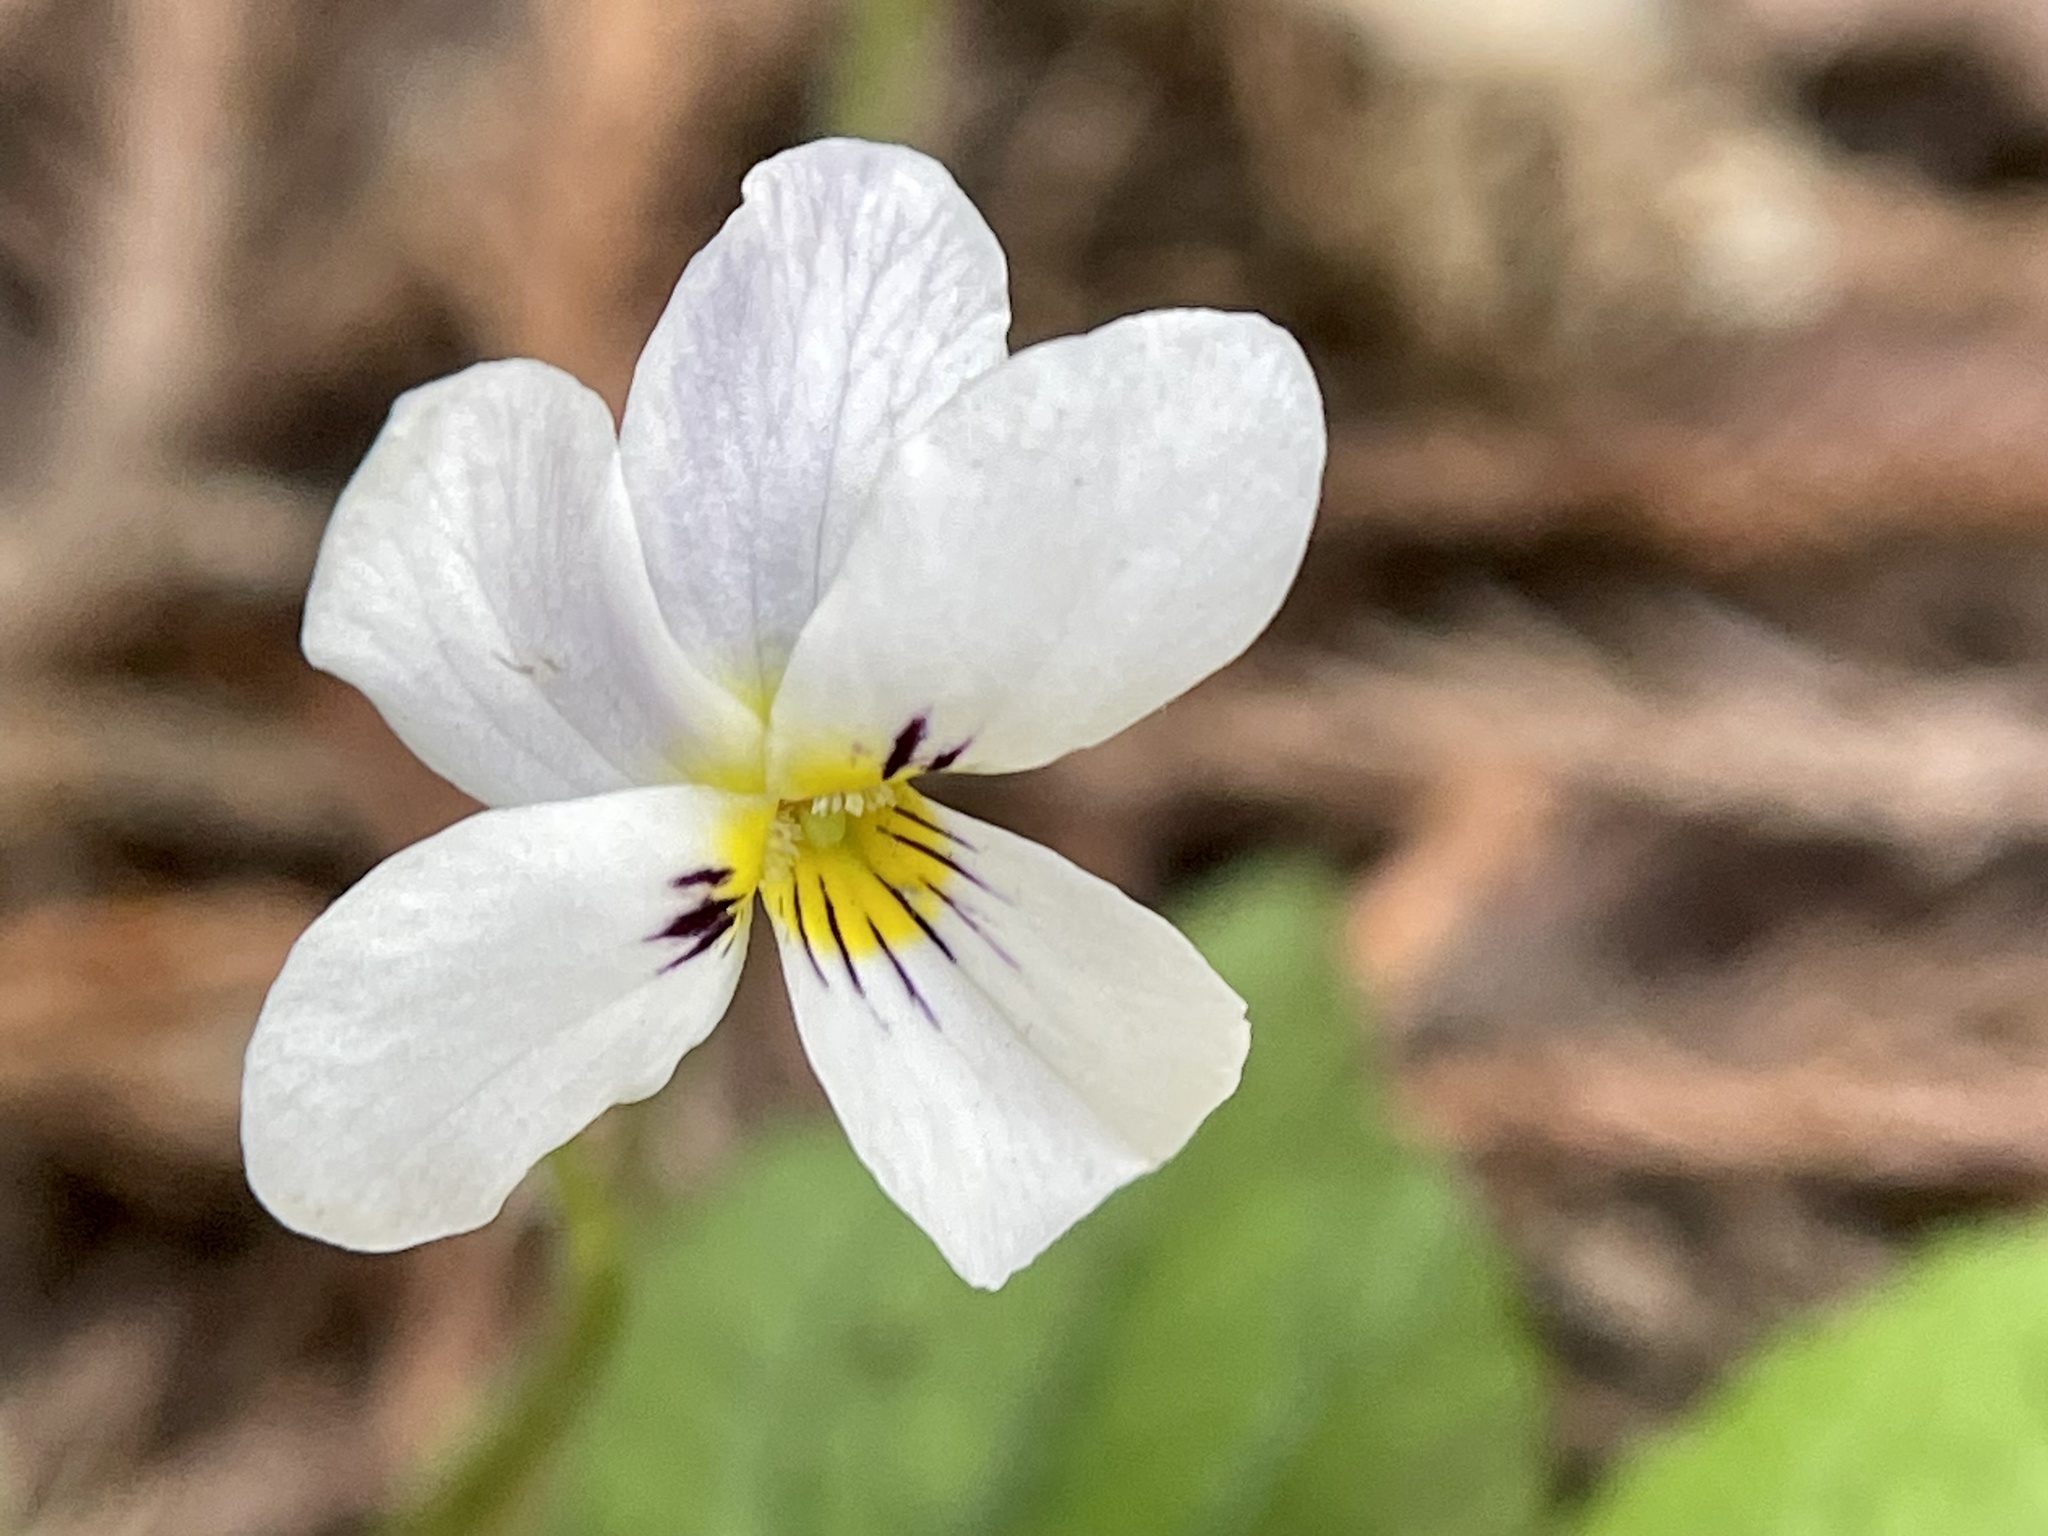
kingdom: Plantae
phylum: Tracheophyta
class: Magnoliopsida
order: Malpighiales
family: Violaceae
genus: Viola
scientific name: Viola ocellata
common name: Western heart's ease
